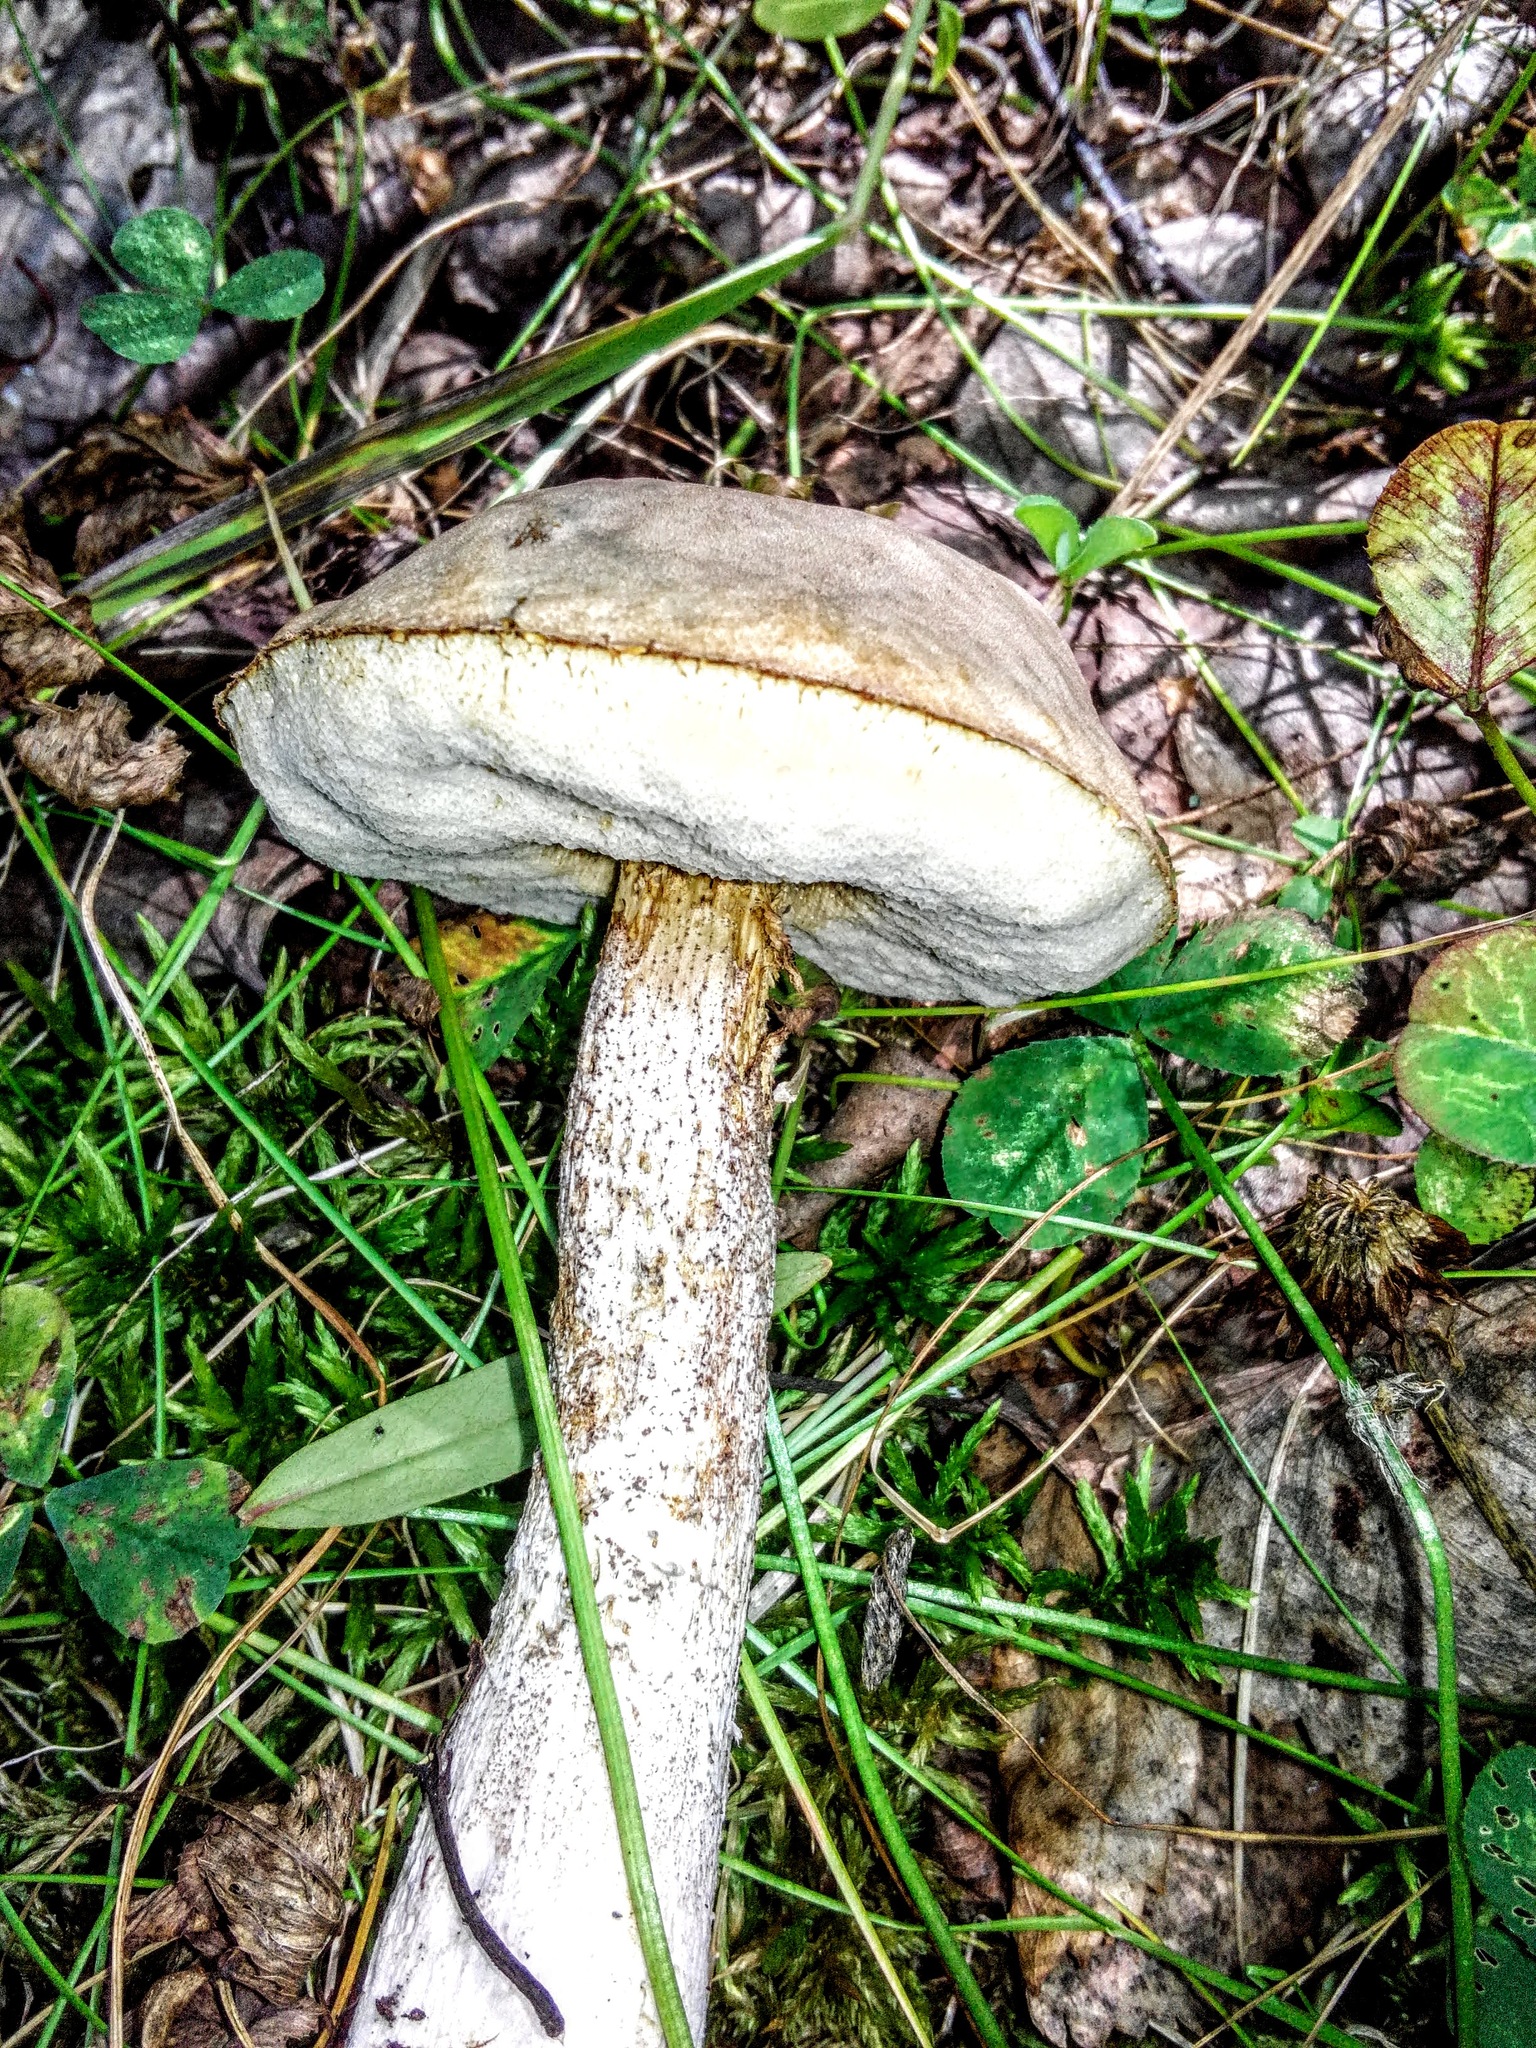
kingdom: Fungi
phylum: Basidiomycota
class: Agaricomycetes
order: Boletales
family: Boletaceae
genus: Leccinum
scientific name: Leccinum holopus
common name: Ghost bolete
